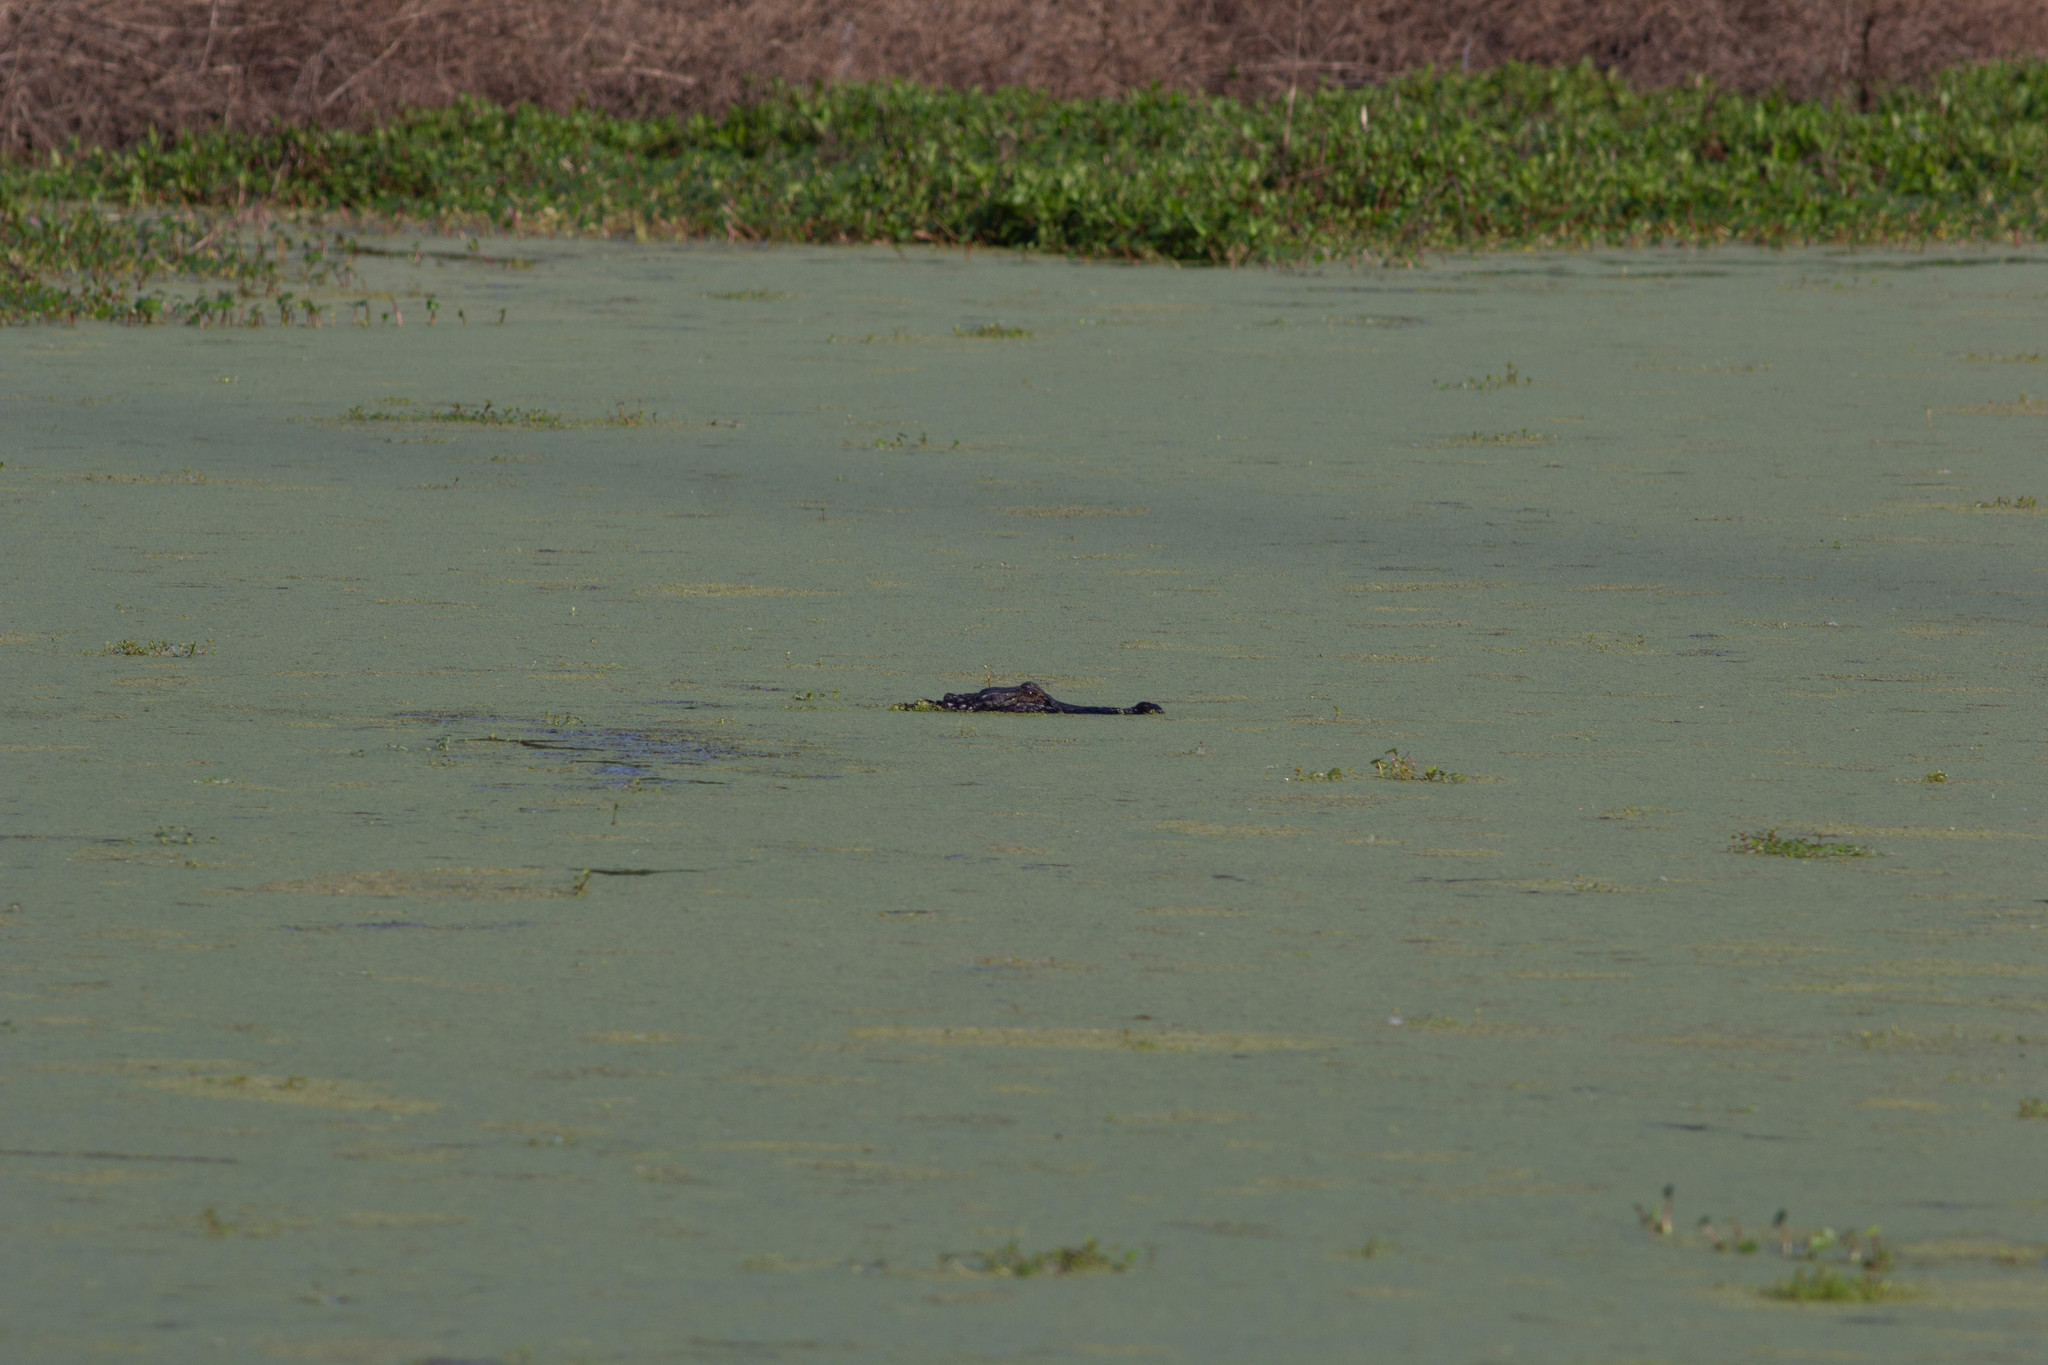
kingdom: Animalia
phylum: Chordata
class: Crocodylia
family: Alligatoridae
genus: Alligator
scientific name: Alligator mississippiensis
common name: American alligator
